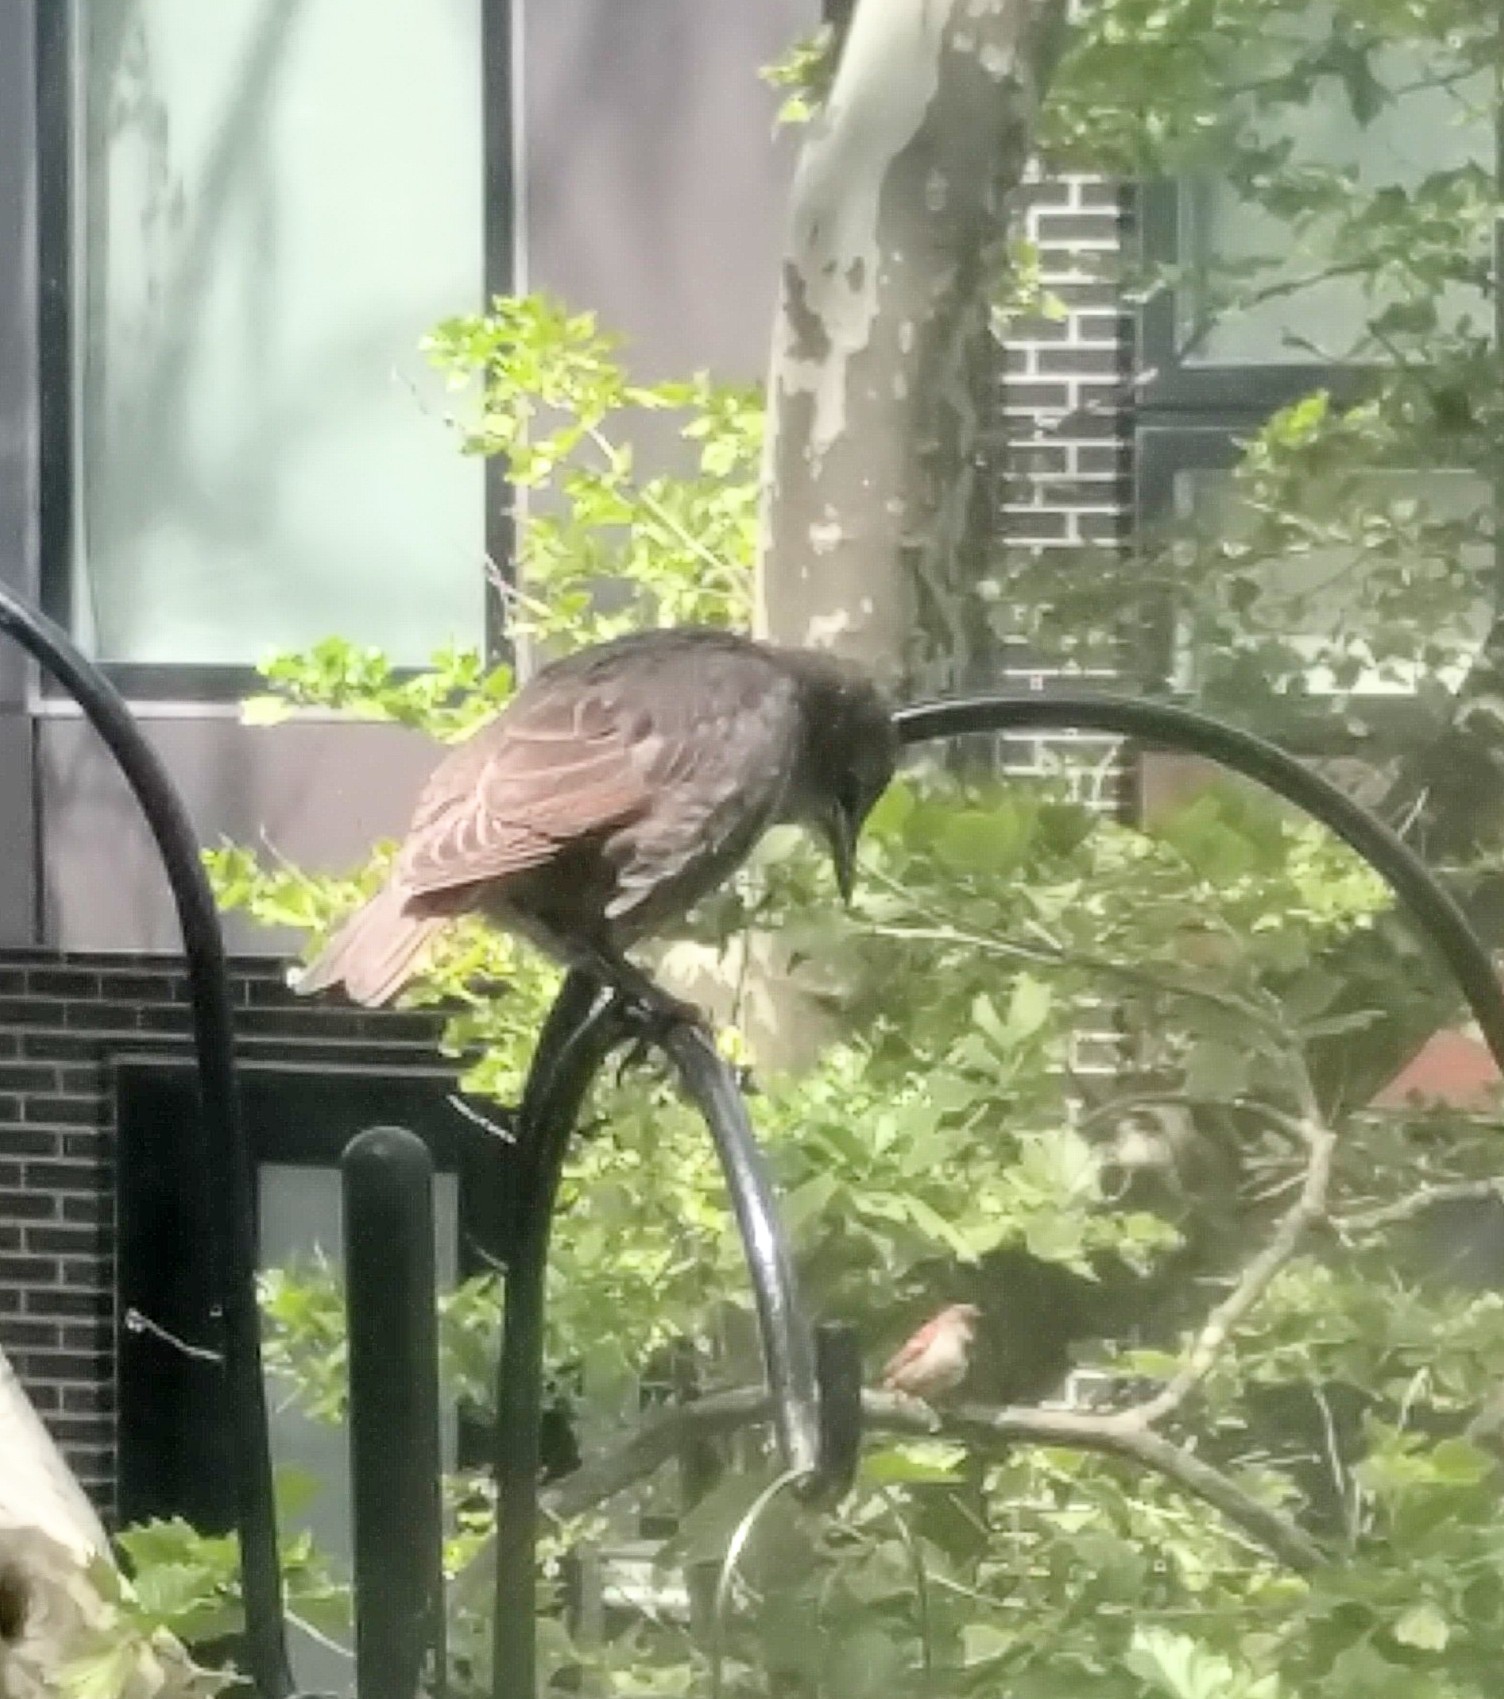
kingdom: Animalia
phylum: Chordata
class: Aves
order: Passeriformes
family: Sturnidae
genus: Sturnus
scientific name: Sturnus vulgaris
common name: Common starling
